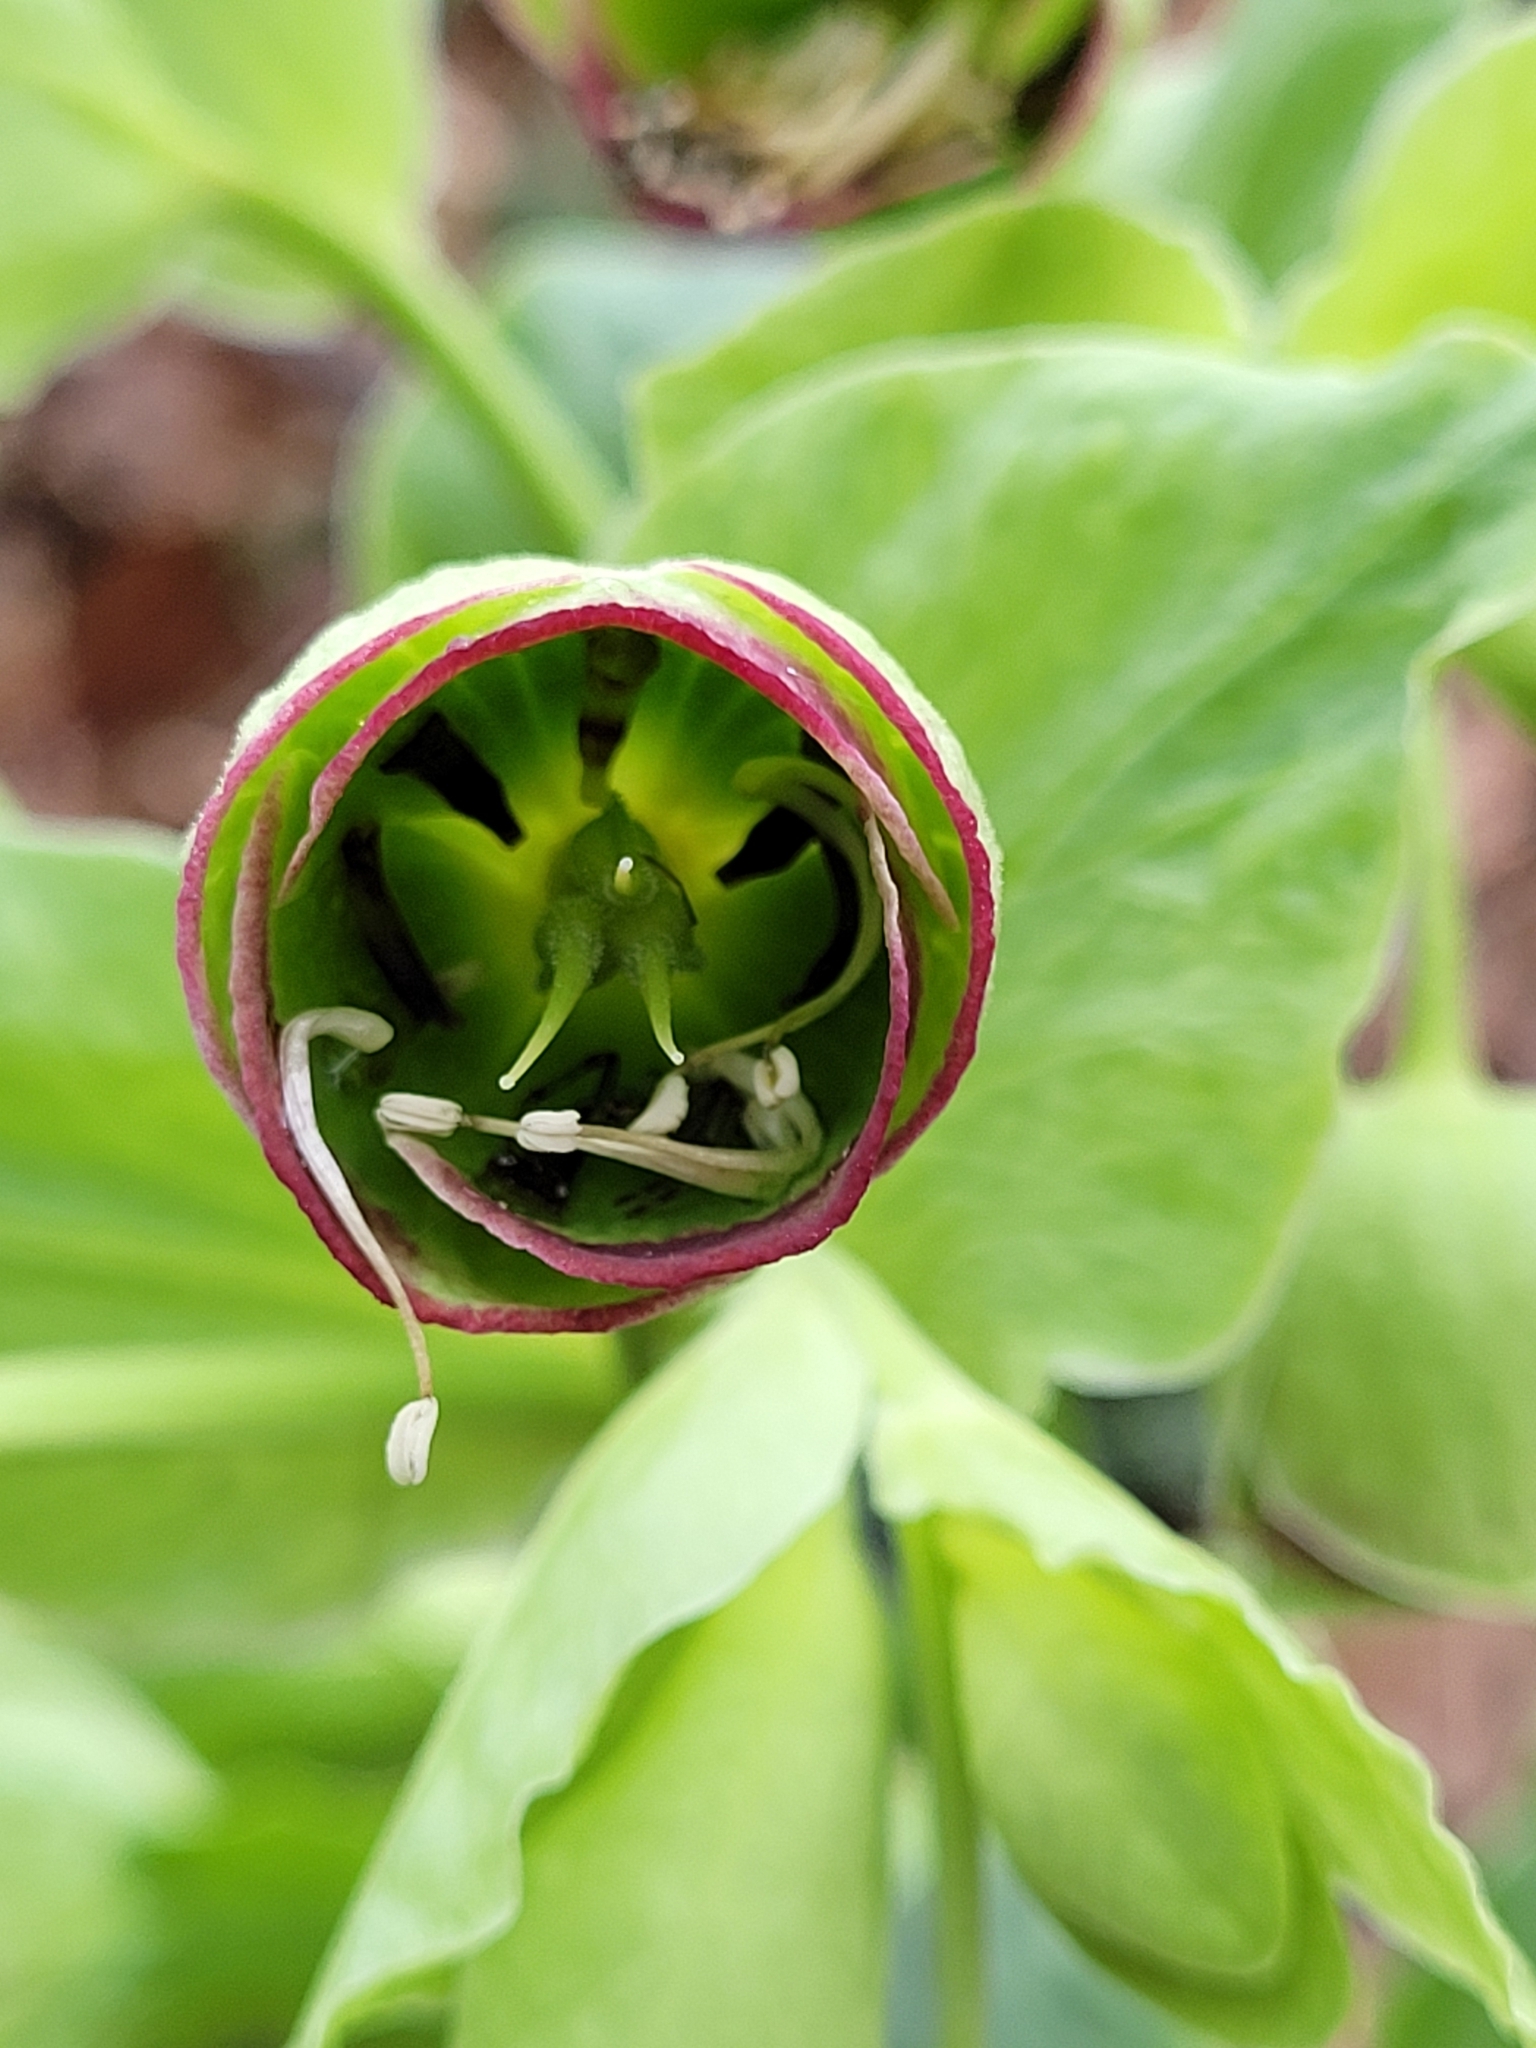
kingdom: Plantae
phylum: Tracheophyta
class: Magnoliopsida
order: Ranunculales
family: Ranunculaceae
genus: Helleborus
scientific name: Helleborus foetidus
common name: Stinking hellebore
